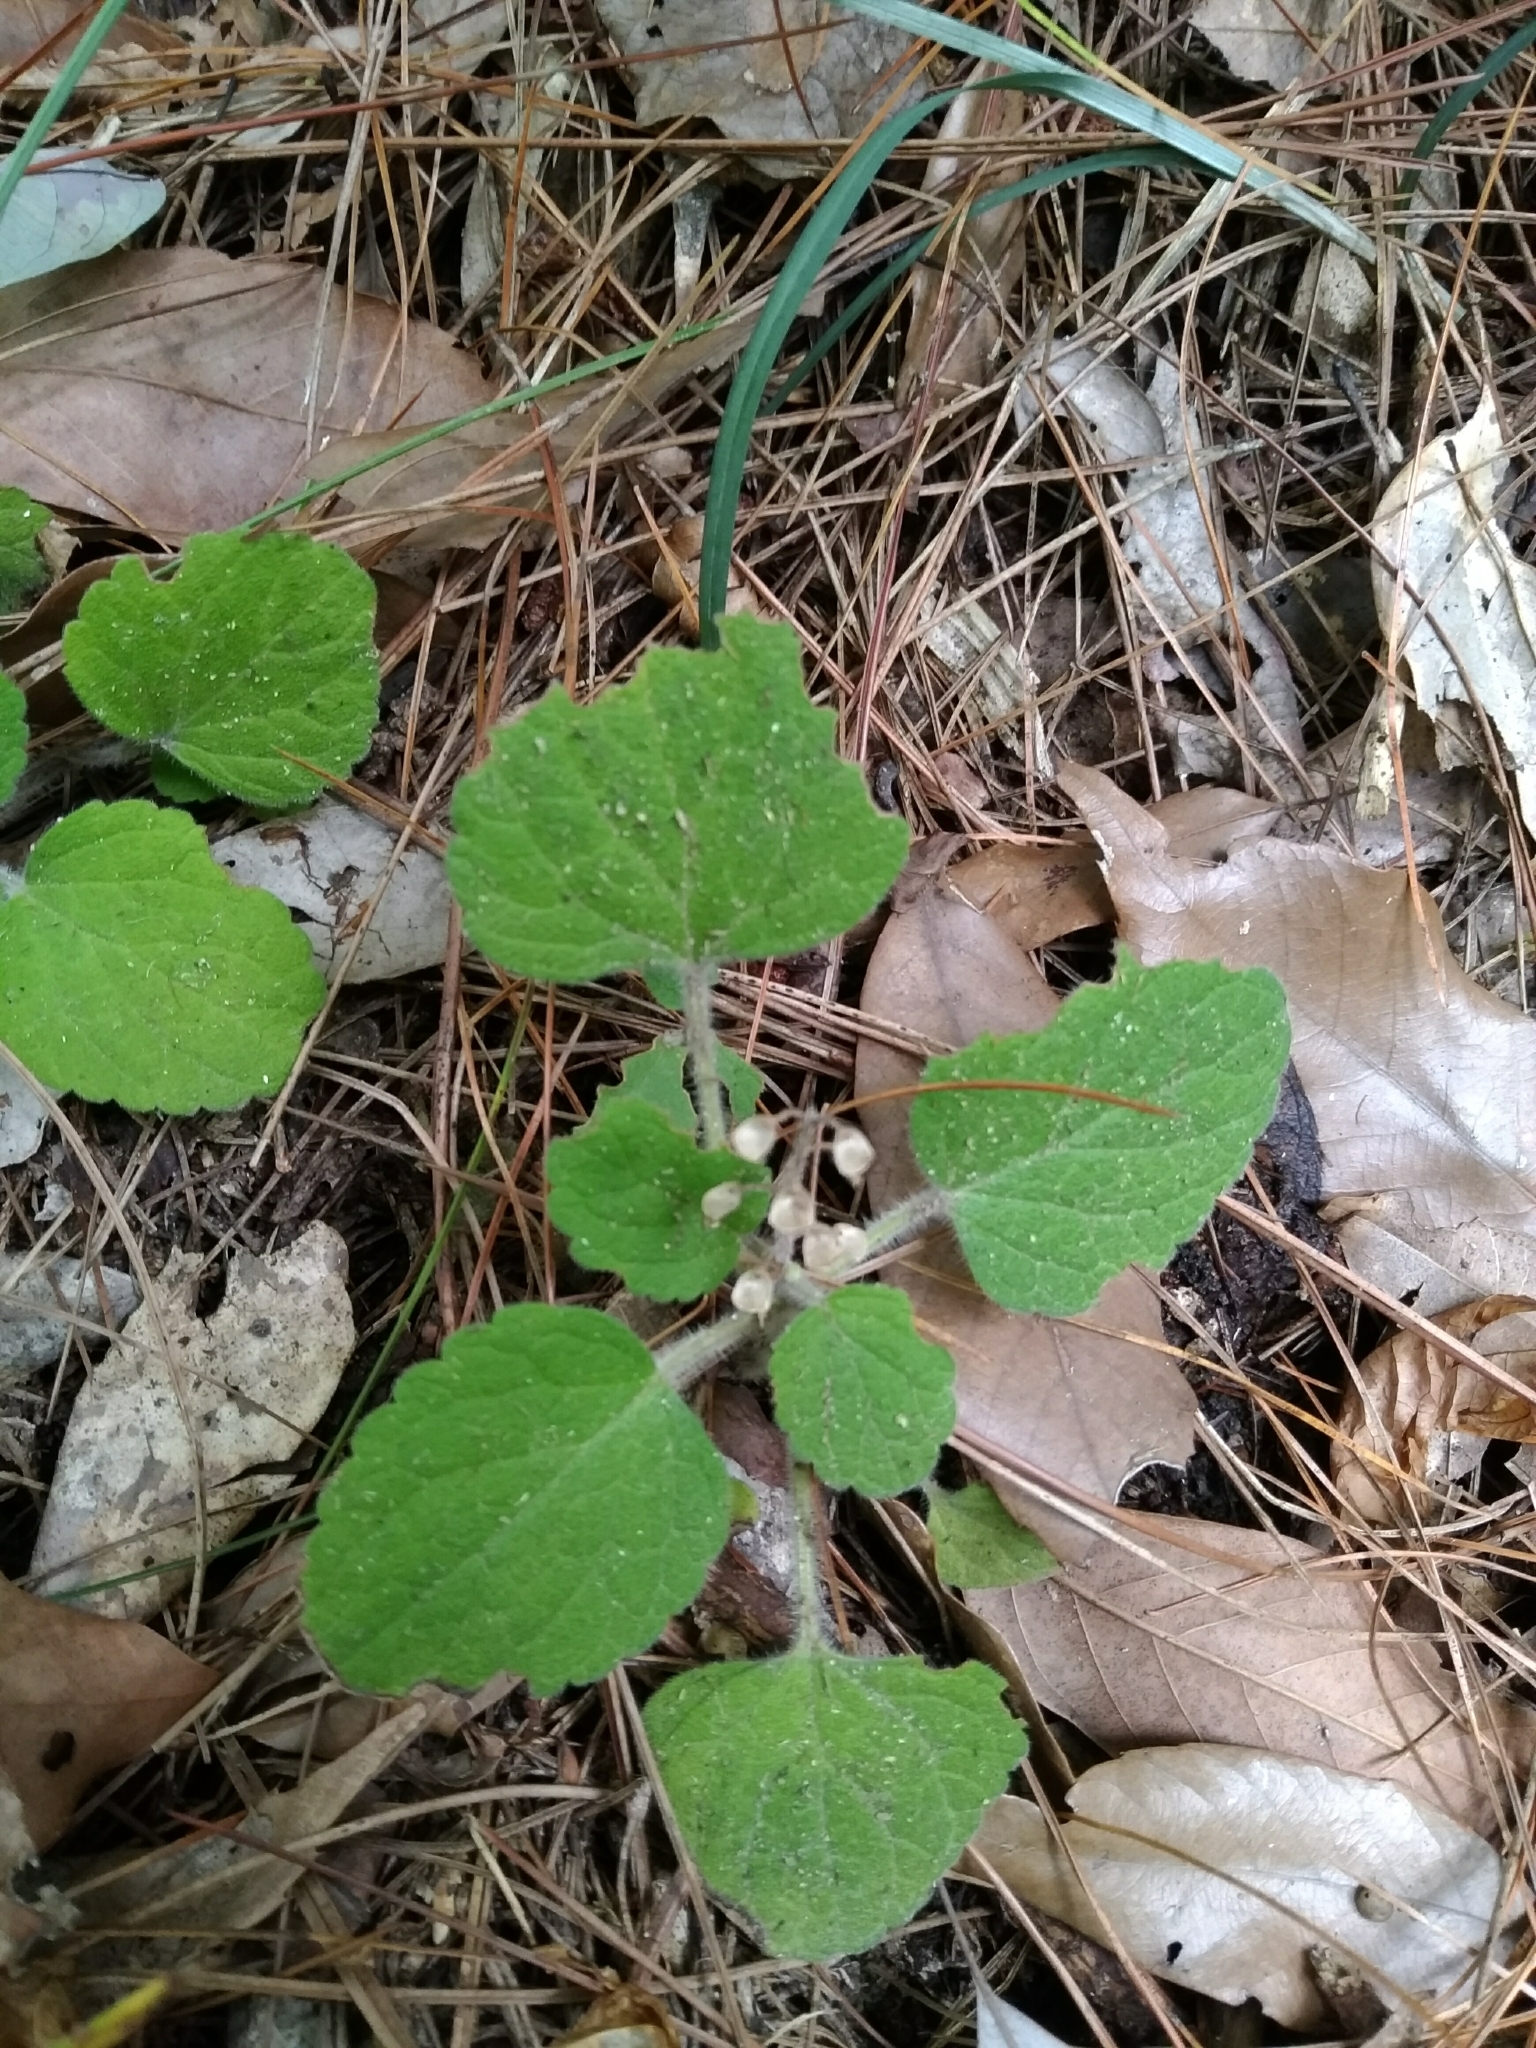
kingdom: Plantae
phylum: Tracheophyta
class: Magnoliopsida
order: Lamiales
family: Lamiaceae
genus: Scutellaria
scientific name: Scutellaria indica
